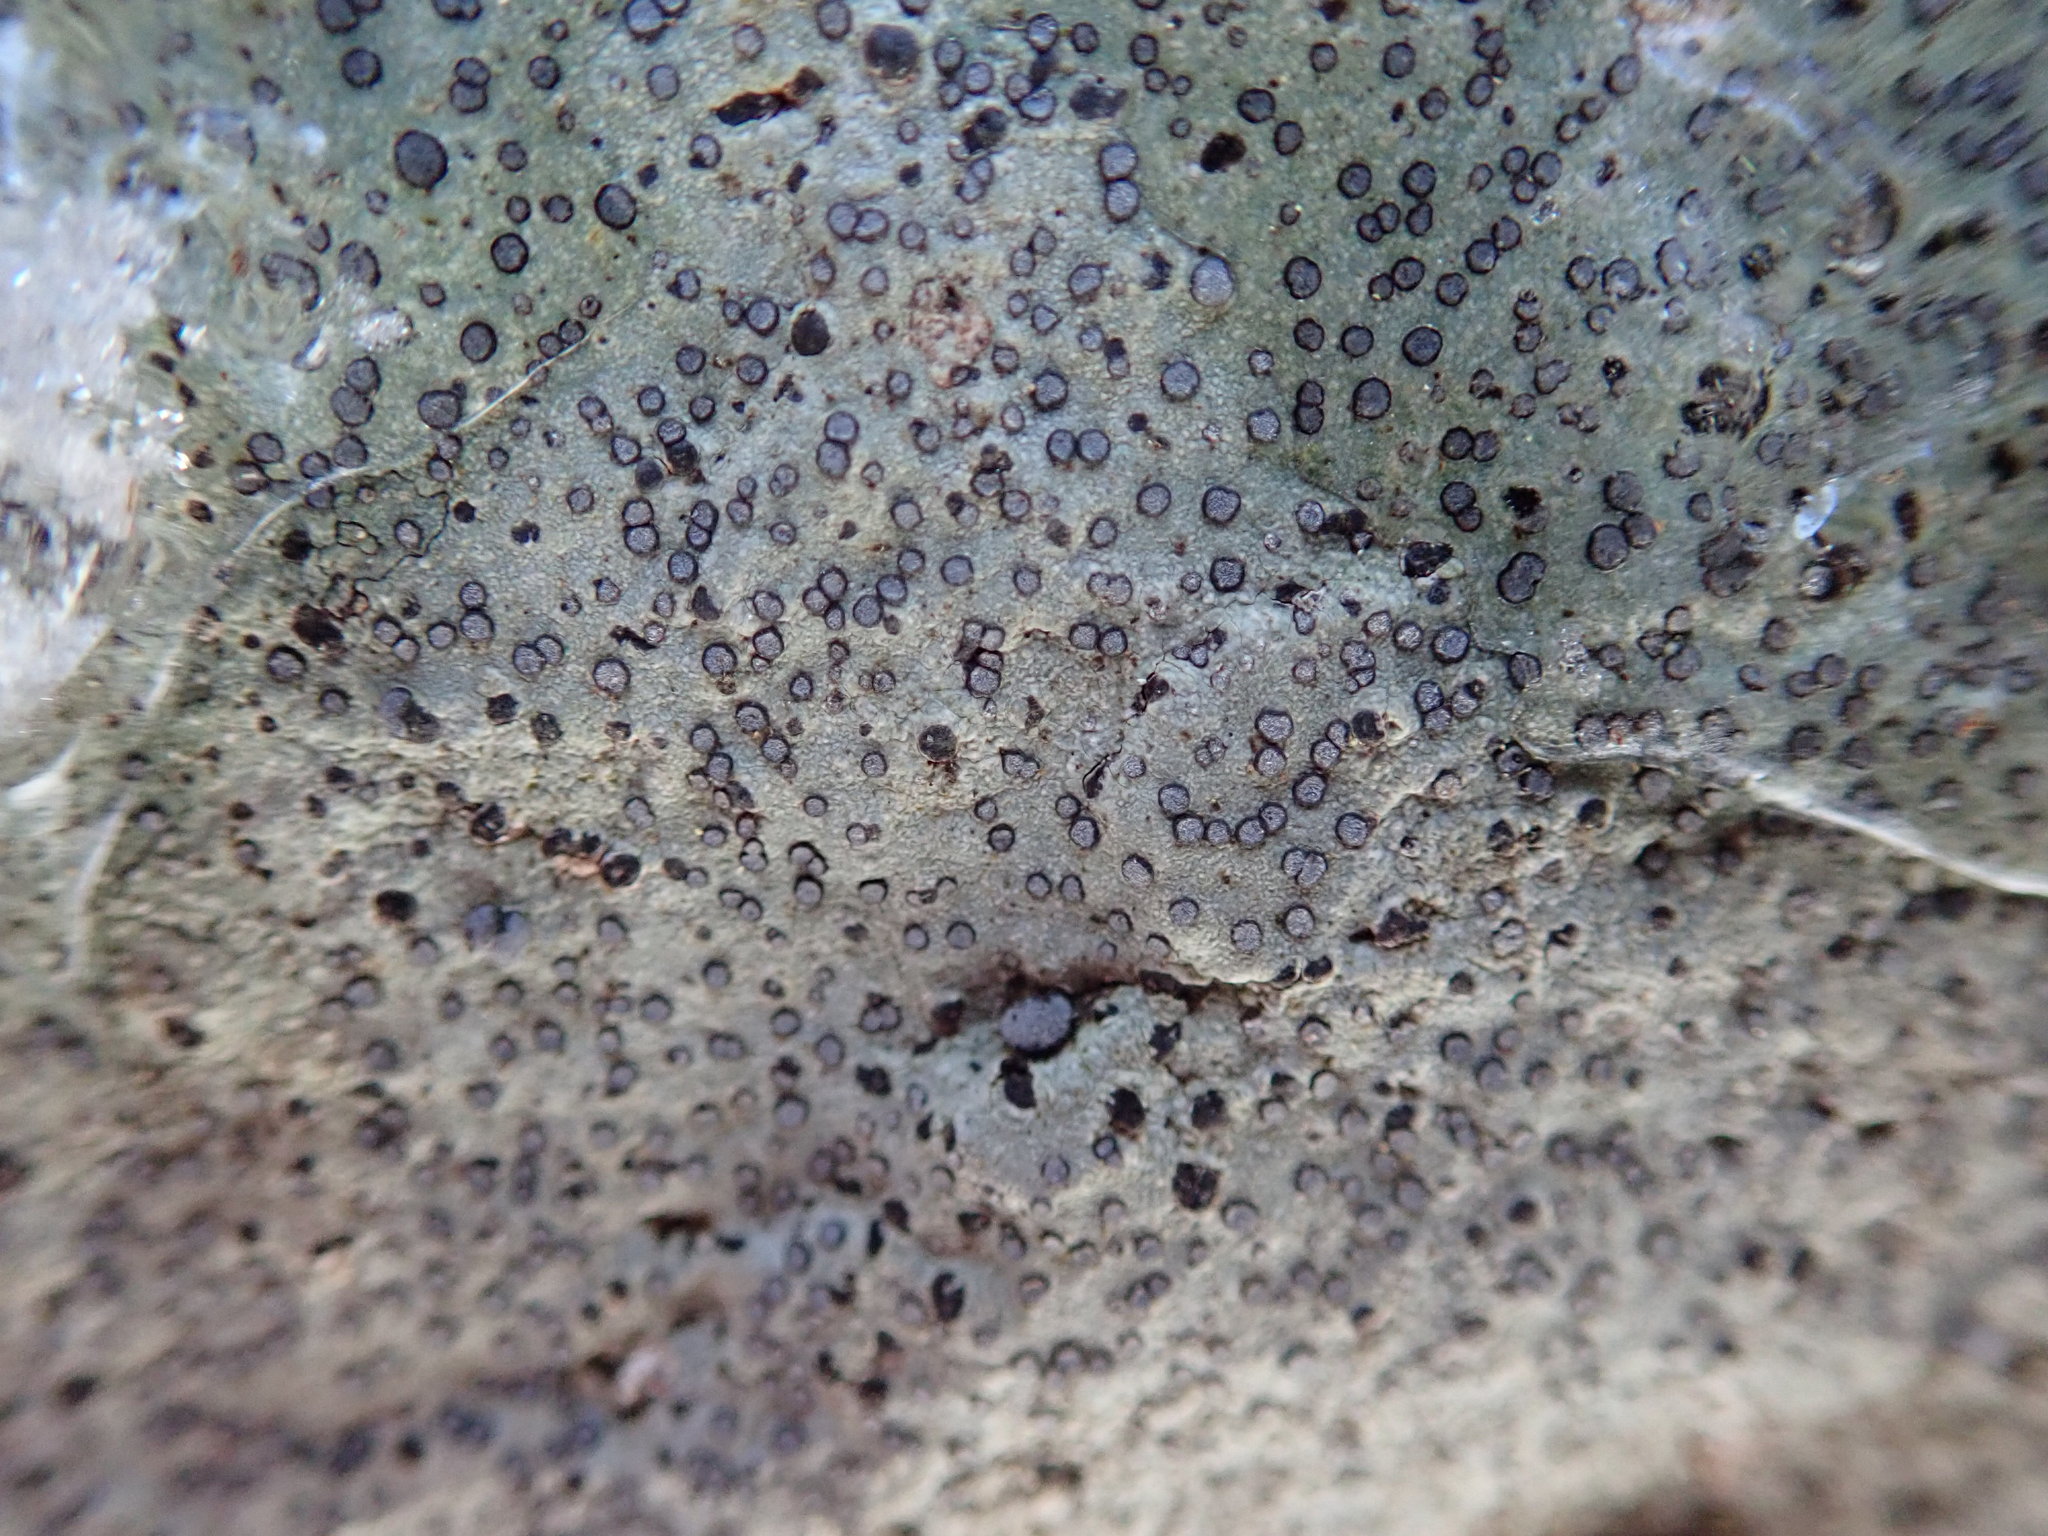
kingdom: Fungi
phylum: Ascomycota
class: Lecanoromycetes
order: Lecideales
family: Lecideaceae
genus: Porpidia
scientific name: Porpidia albocaerulescens
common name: Smokey-eyed boulder lichen
